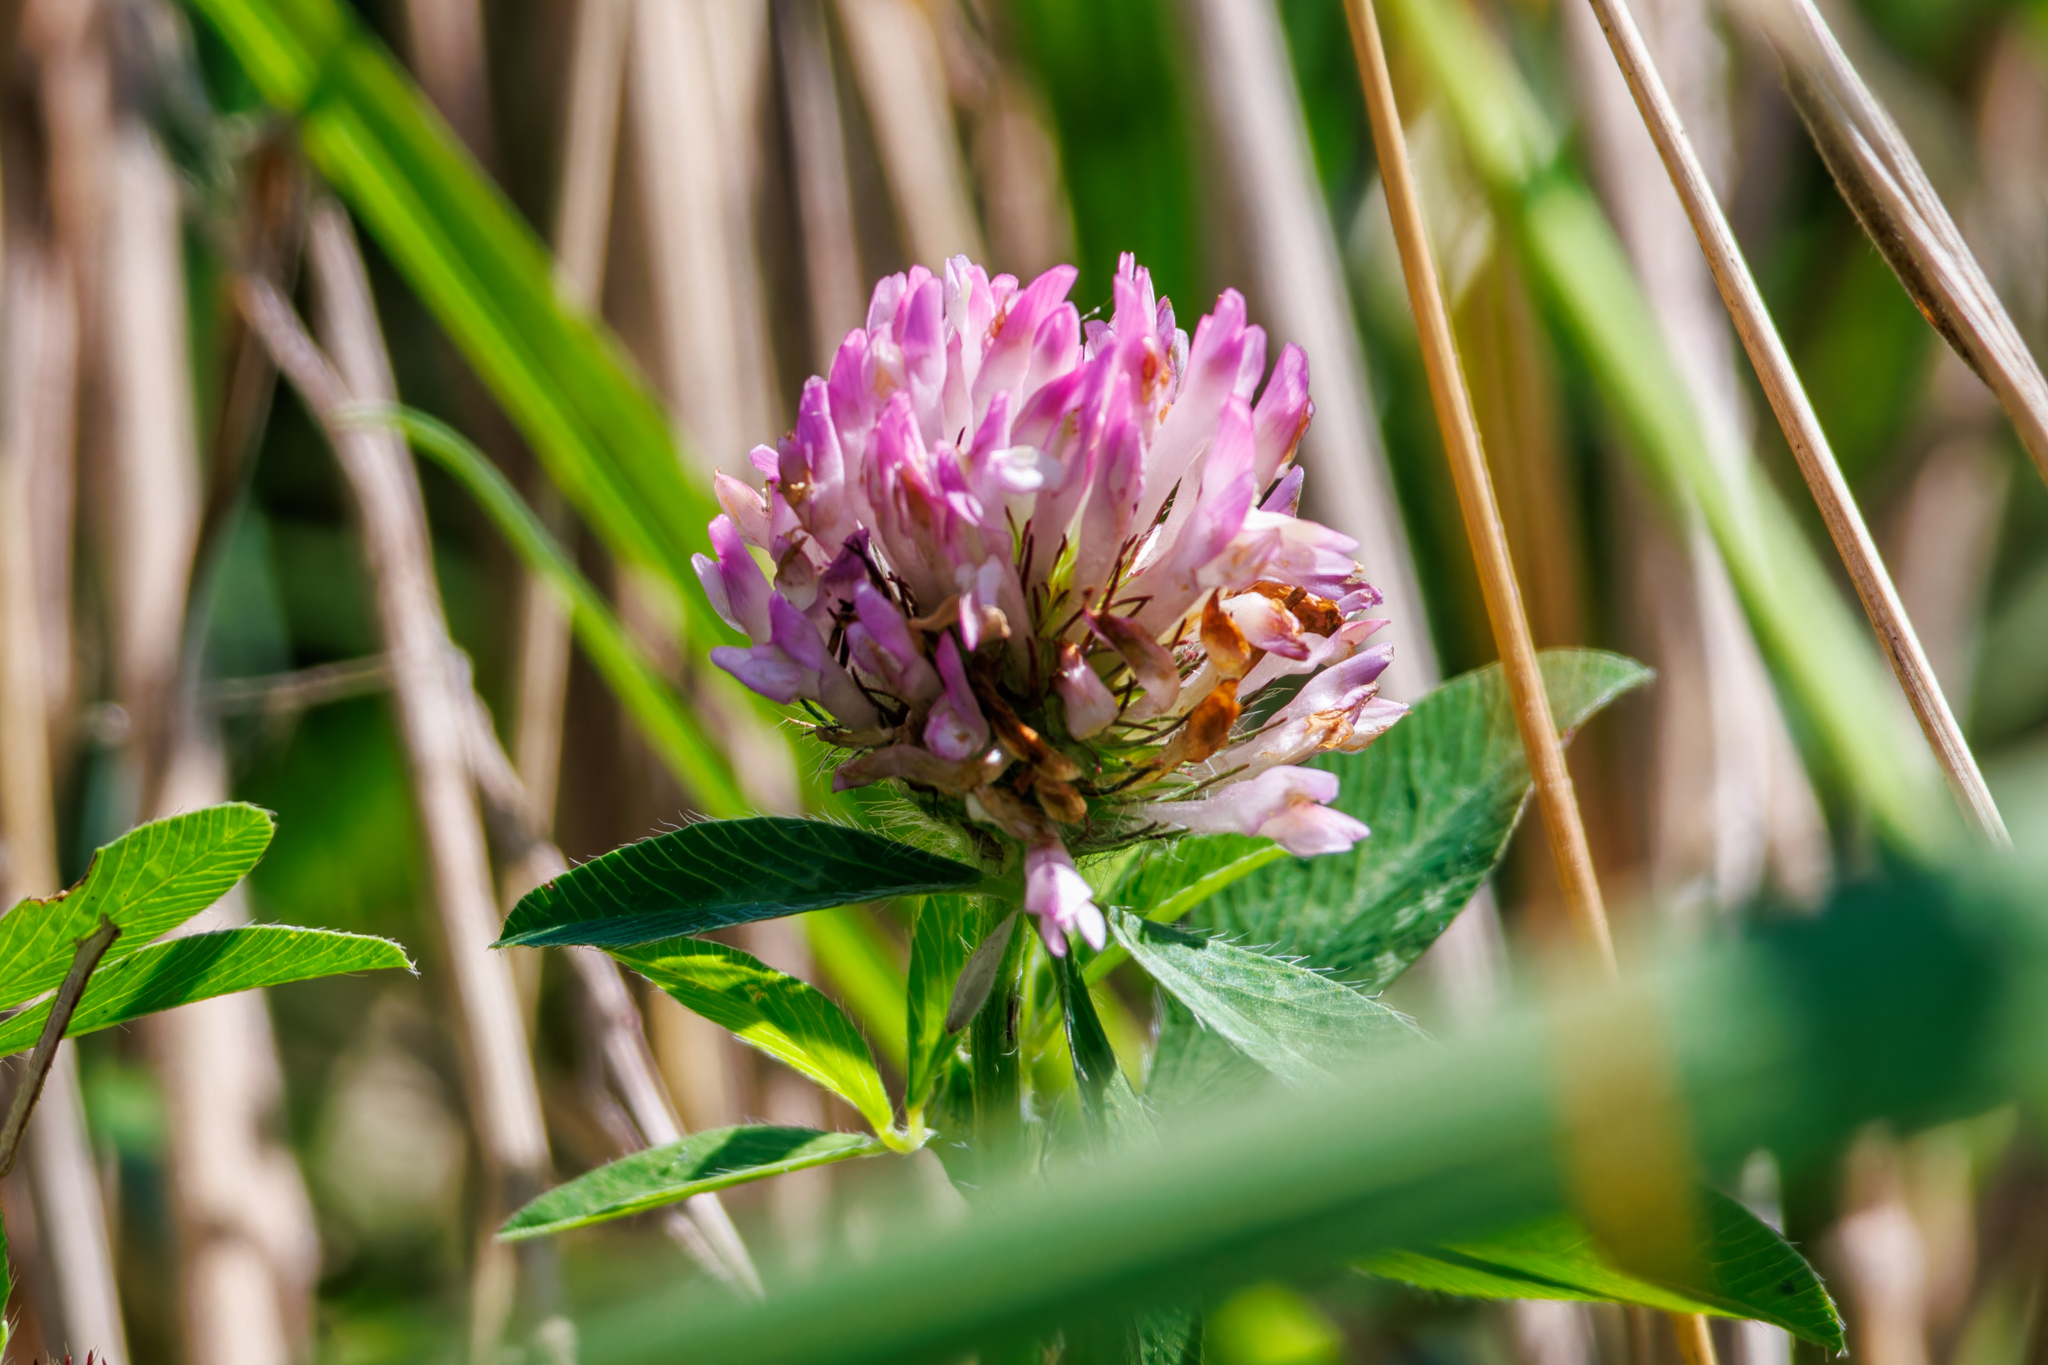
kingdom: Plantae
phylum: Tracheophyta
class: Magnoliopsida
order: Fabales
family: Fabaceae
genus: Trifolium
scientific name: Trifolium pratense
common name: Red clover
